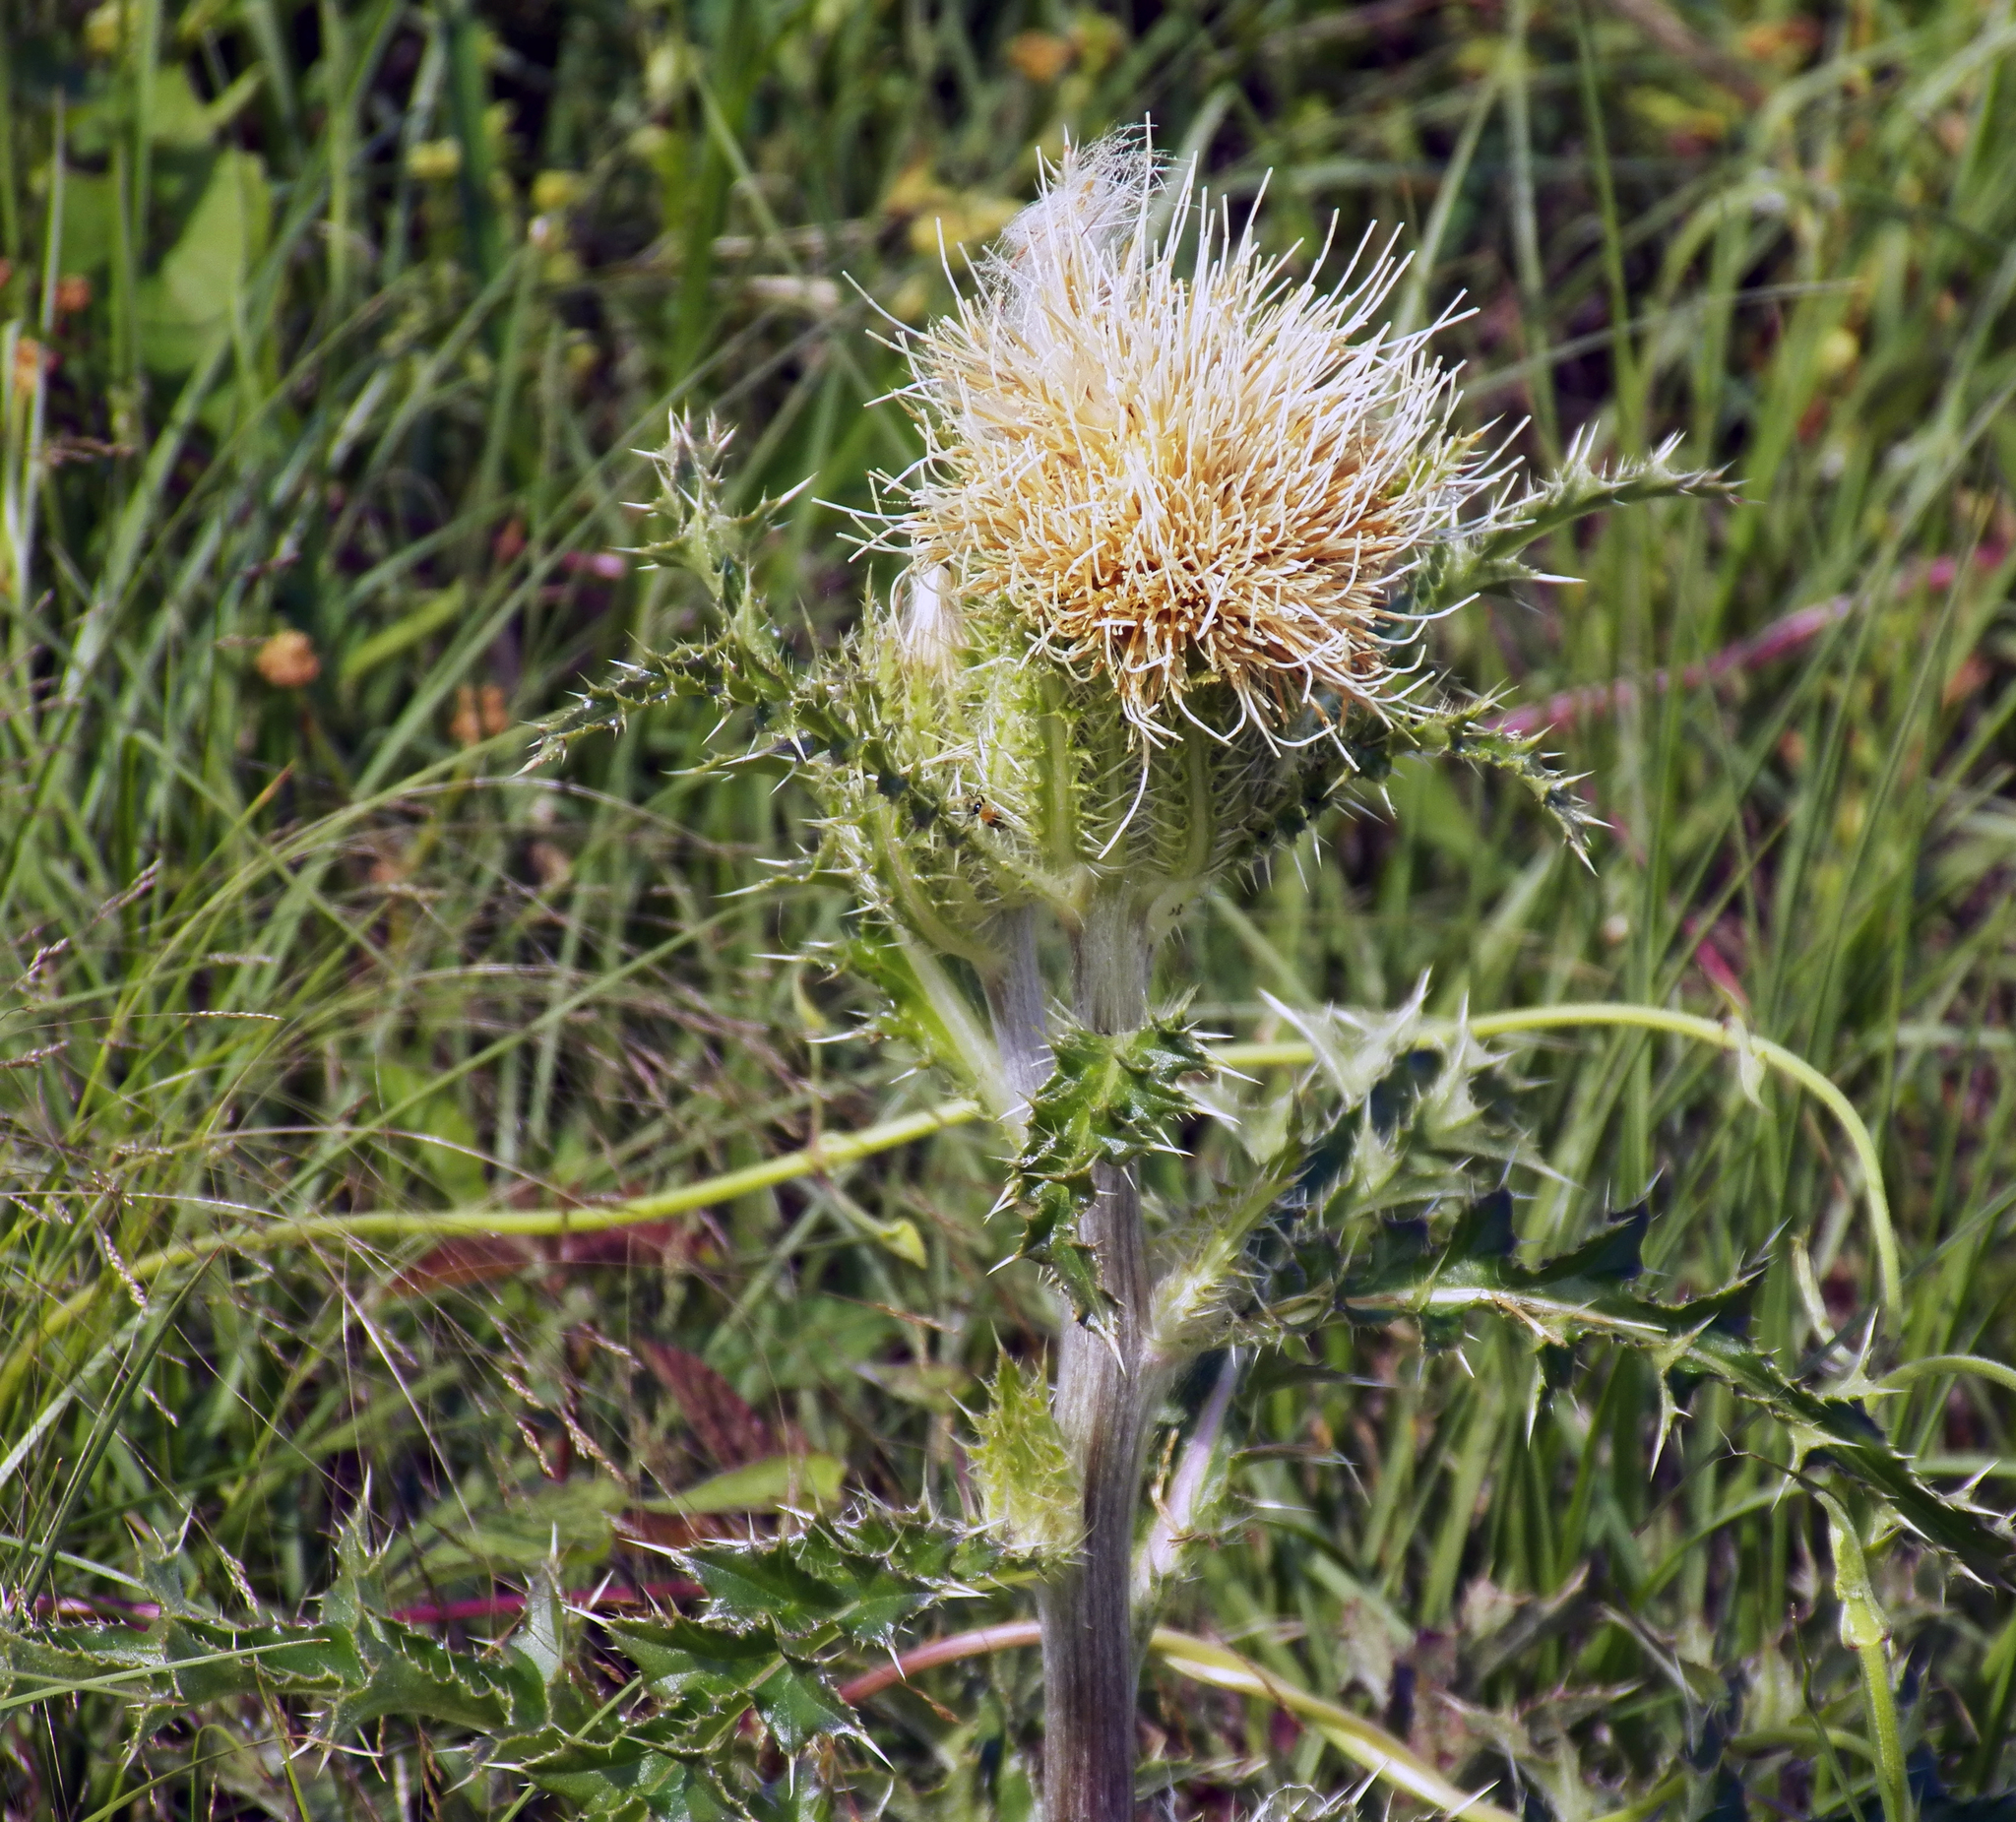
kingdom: Plantae
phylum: Tracheophyta
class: Magnoliopsida
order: Asterales
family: Asteraceae
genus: Cirsium
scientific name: Cirsium horridulum
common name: Bristly thistle
